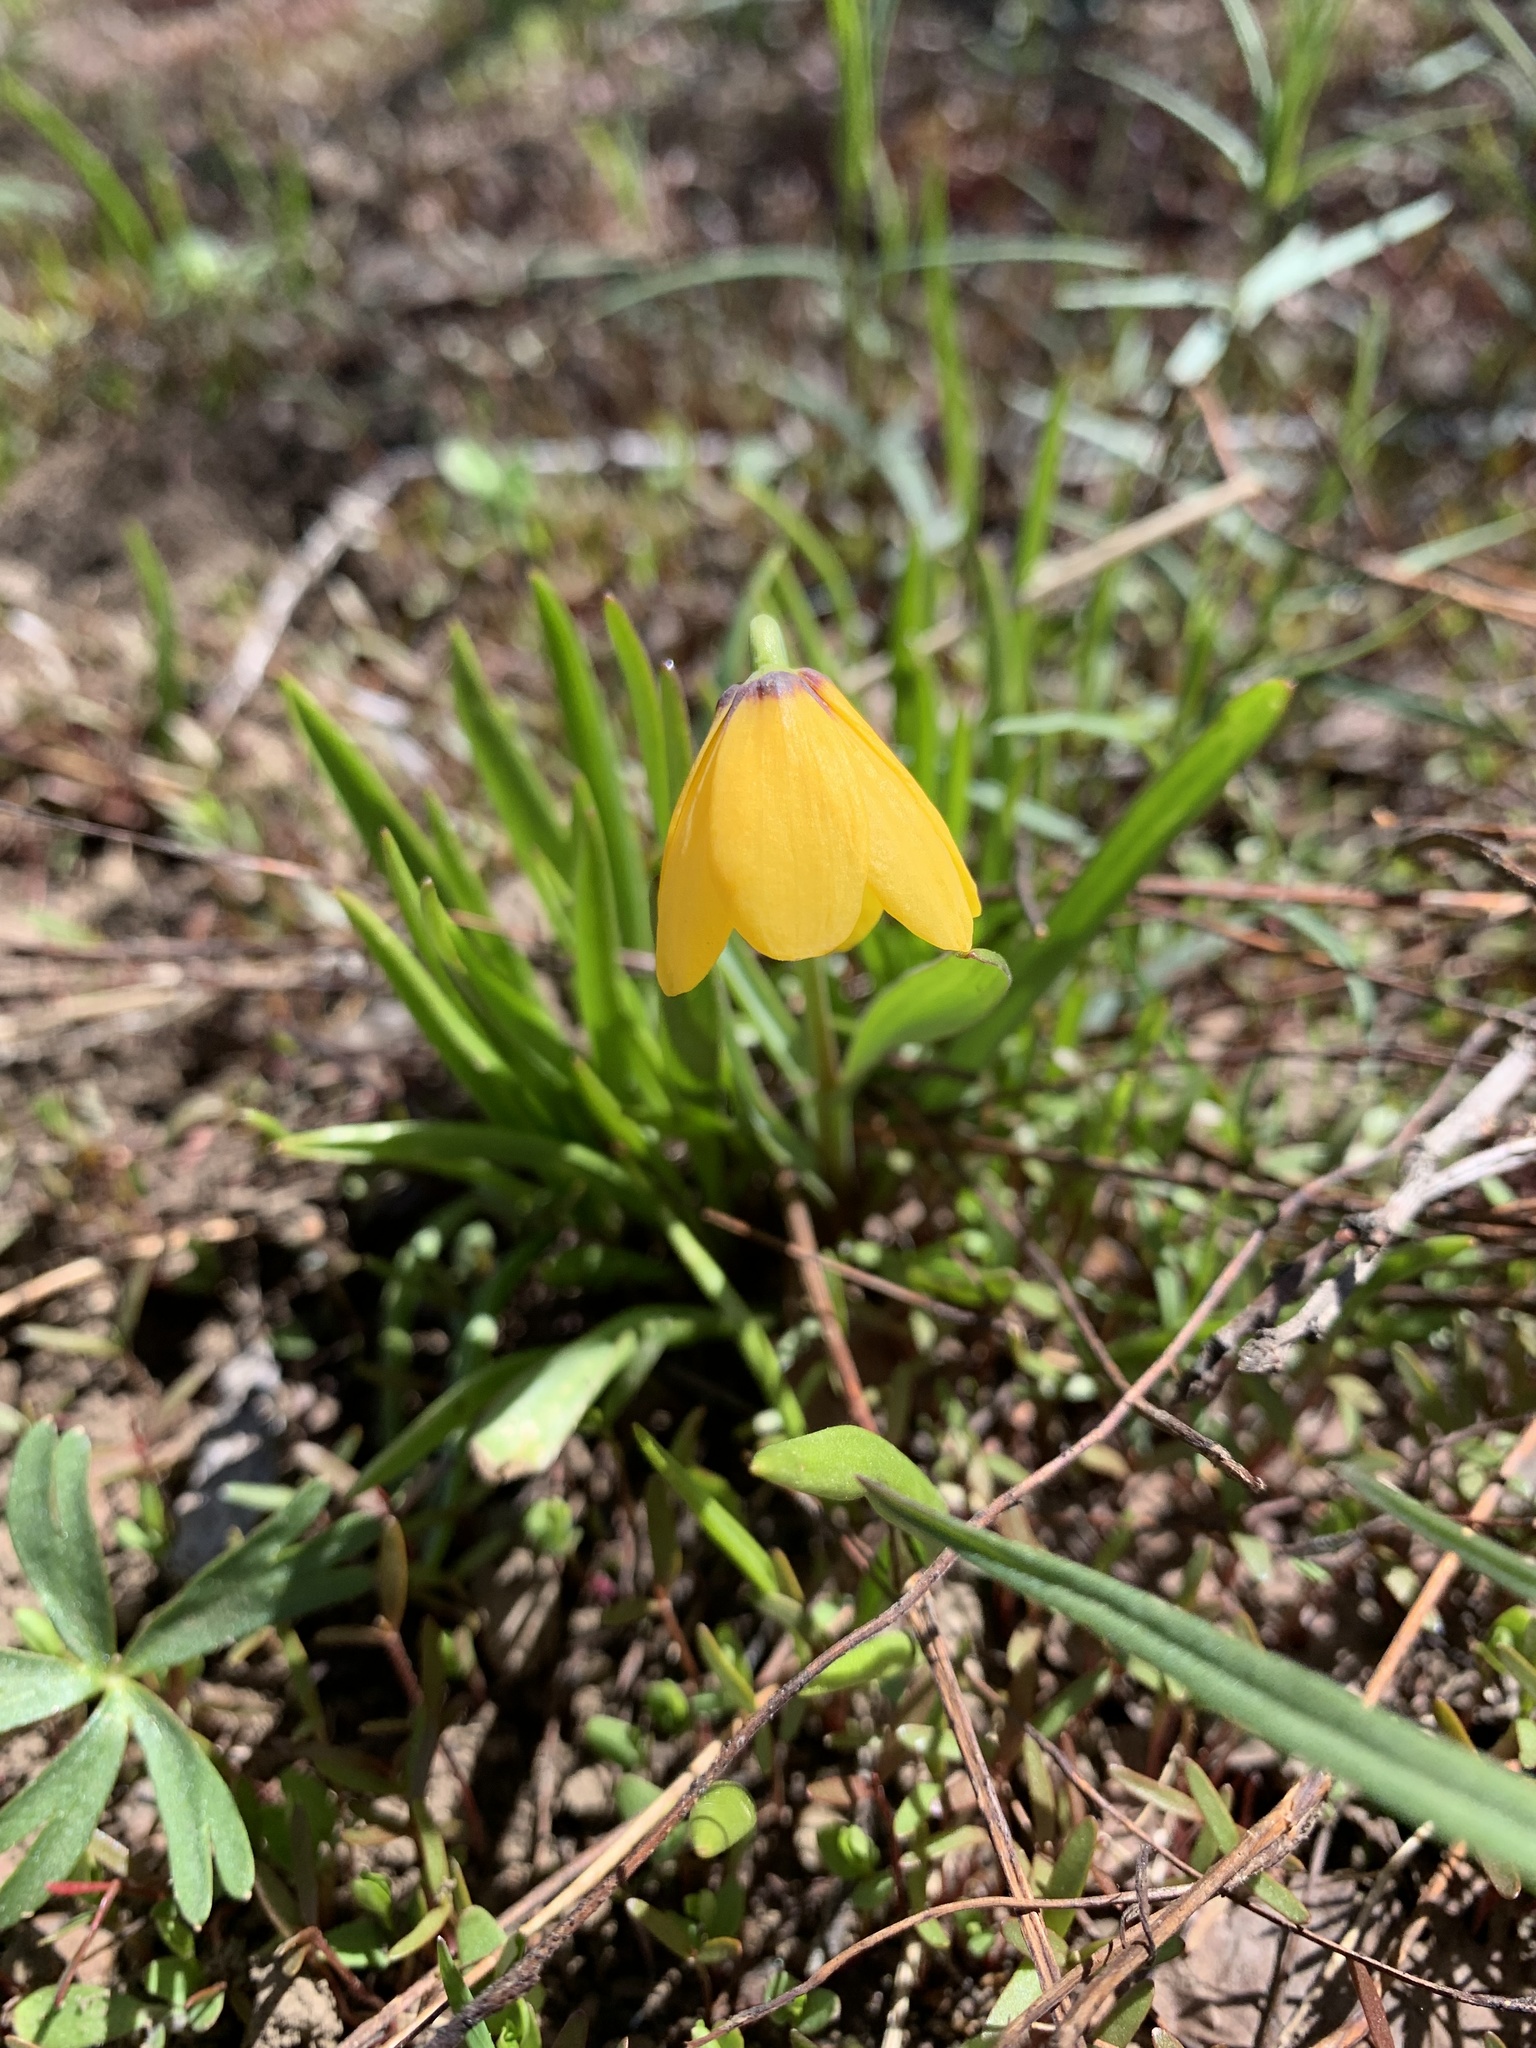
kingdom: Plantae
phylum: Tracheophyta
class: Liliopsida
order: Liliales
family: Liliaceae
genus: Fritillaria
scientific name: Fritillaria pudica
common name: Yellow fritillary
